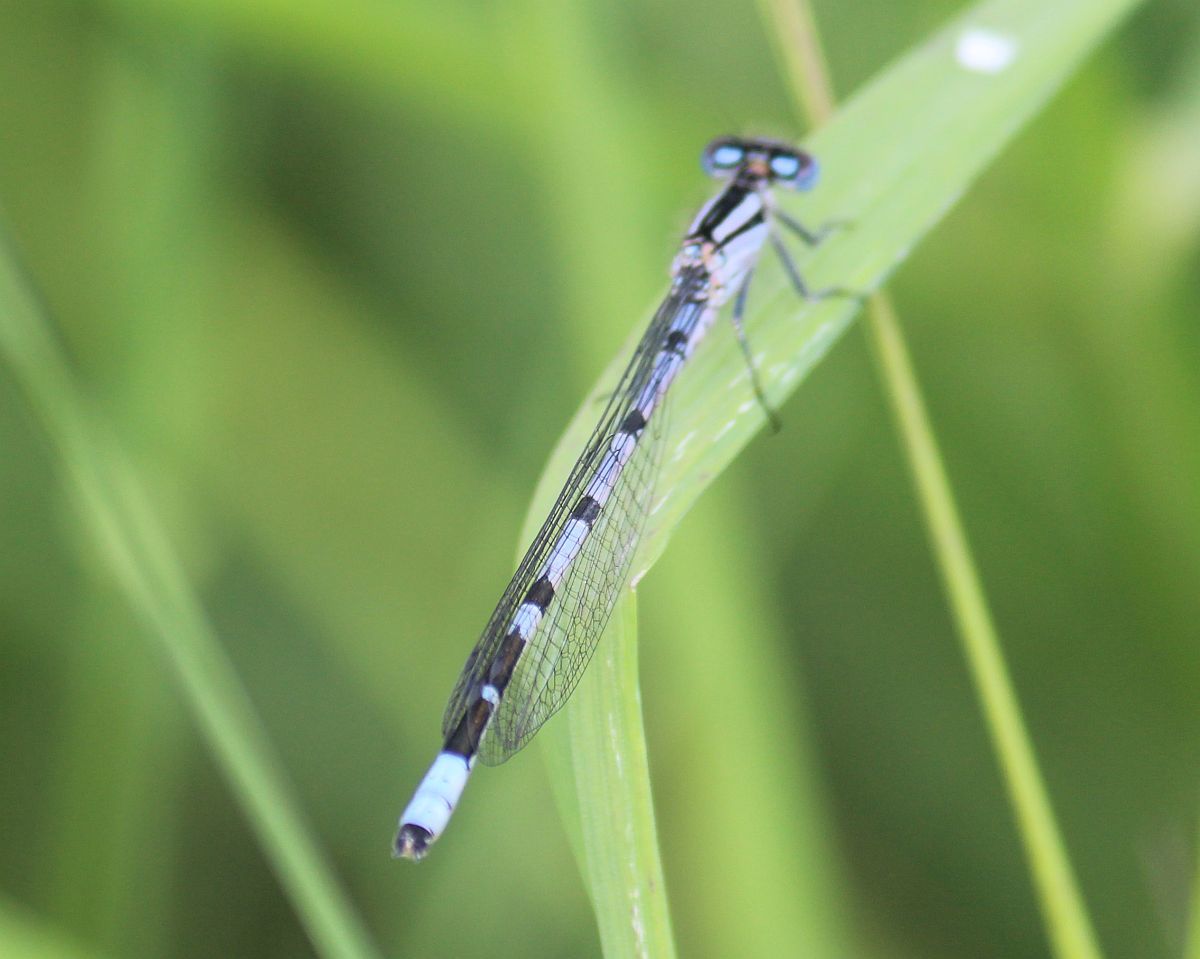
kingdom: Animalia
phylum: Arthropoda
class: Insecta
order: Odonata
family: Coenagrionidae
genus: Enallagma
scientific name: Enallagma cyathigerum
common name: Common blue damselfly
